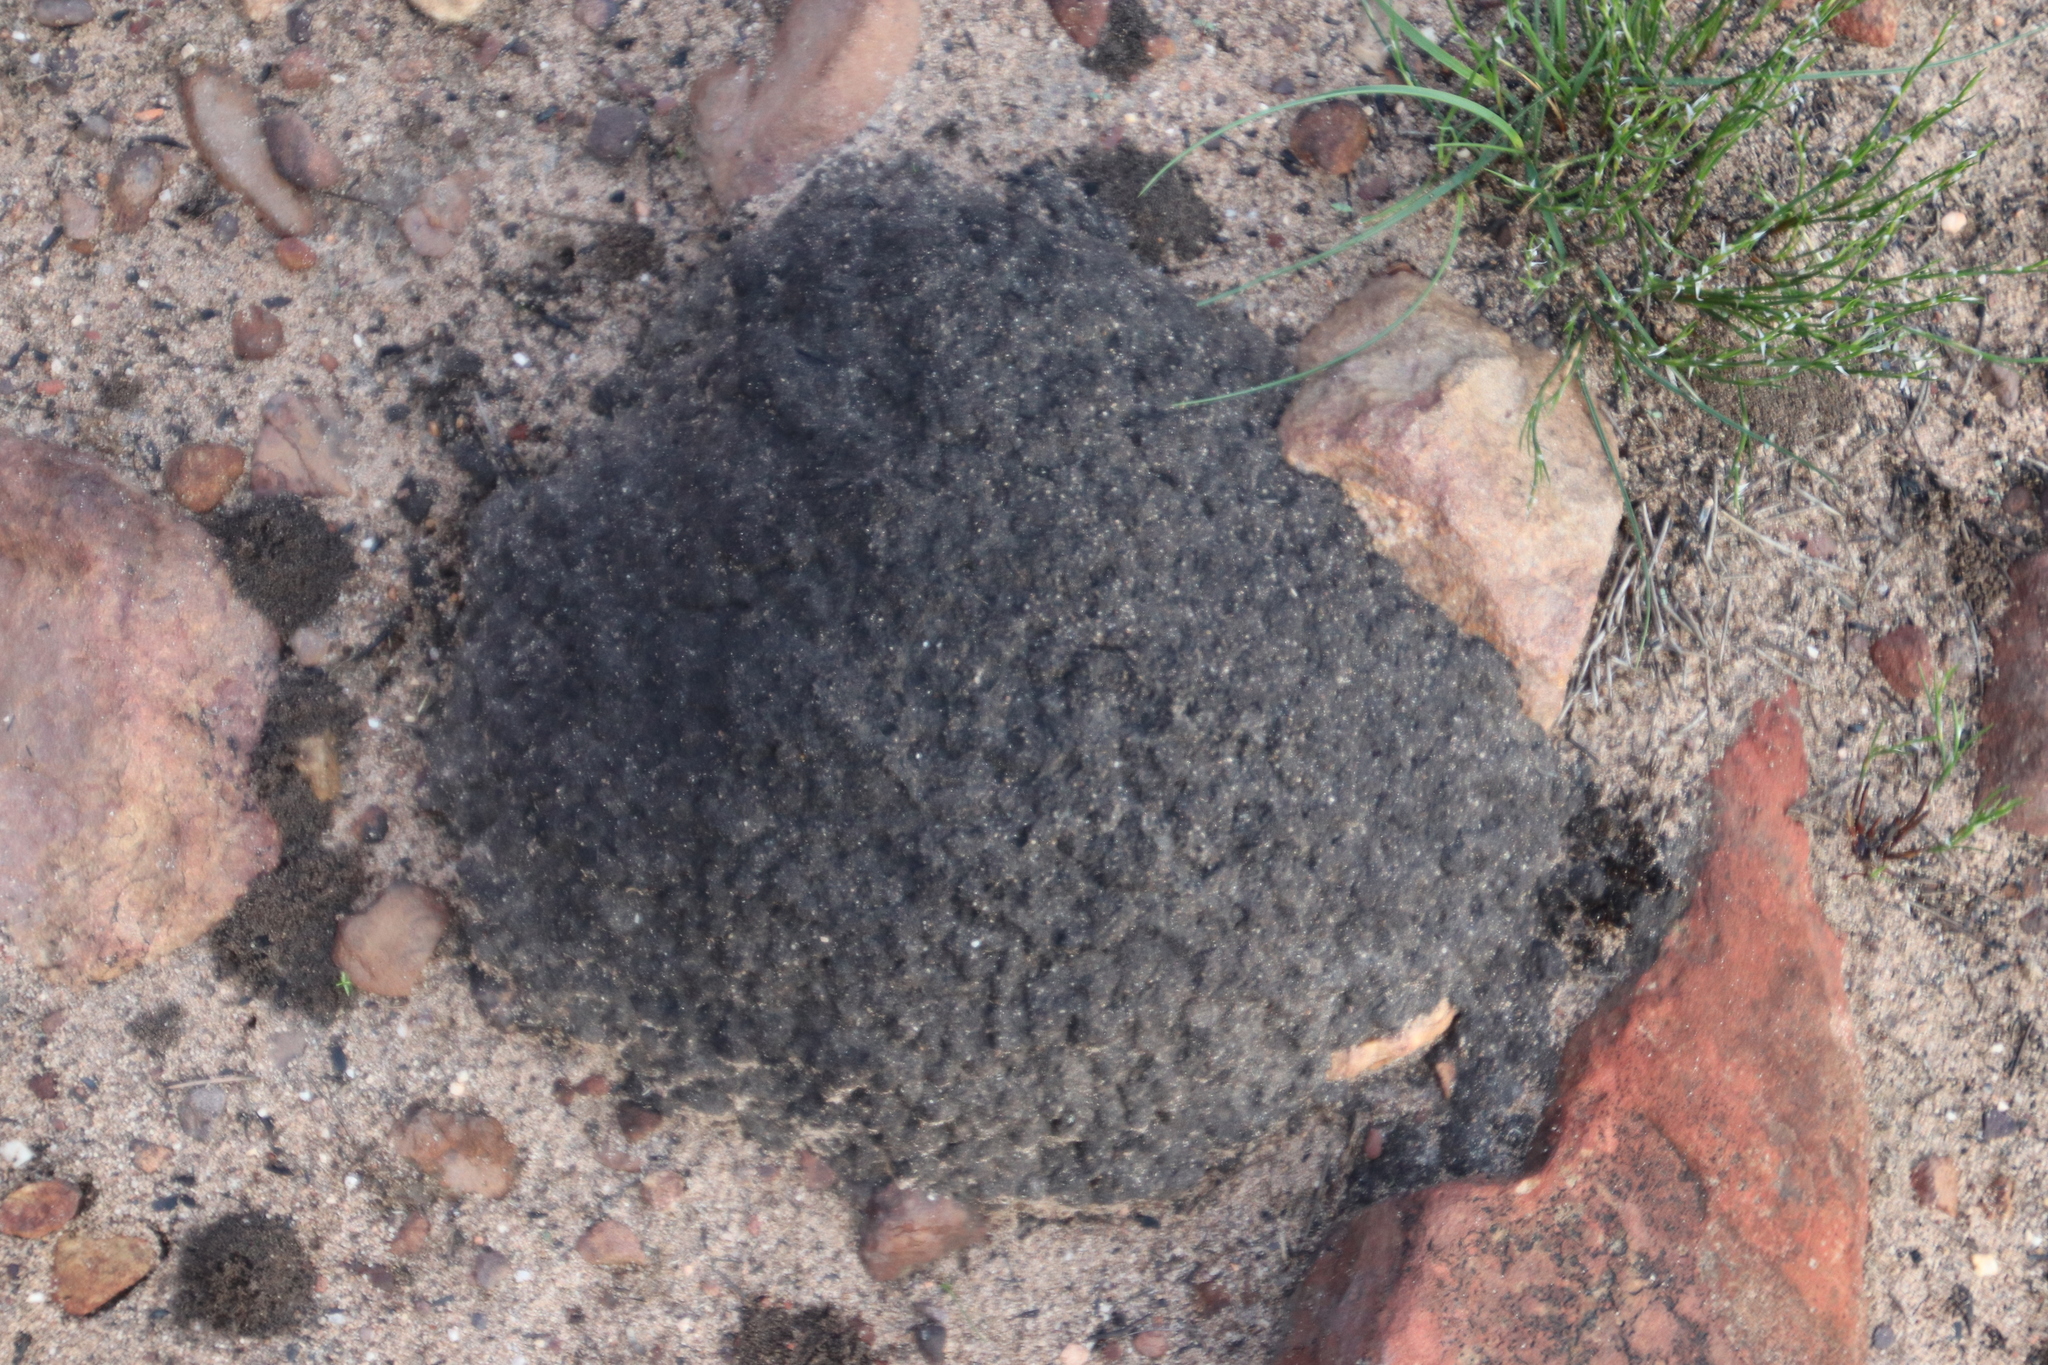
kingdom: Animalia
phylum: Arthropoda
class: Insecta
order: Blattodea
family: Termitidae
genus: Amitermes
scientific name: Amitermes hastatus
